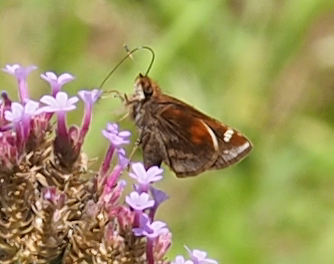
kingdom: Animalia
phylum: Arthropoda
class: Insecta
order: Lepidoptera
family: Hesperiidae
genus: Lon
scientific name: Lon zabulon
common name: Zabulon skipper
